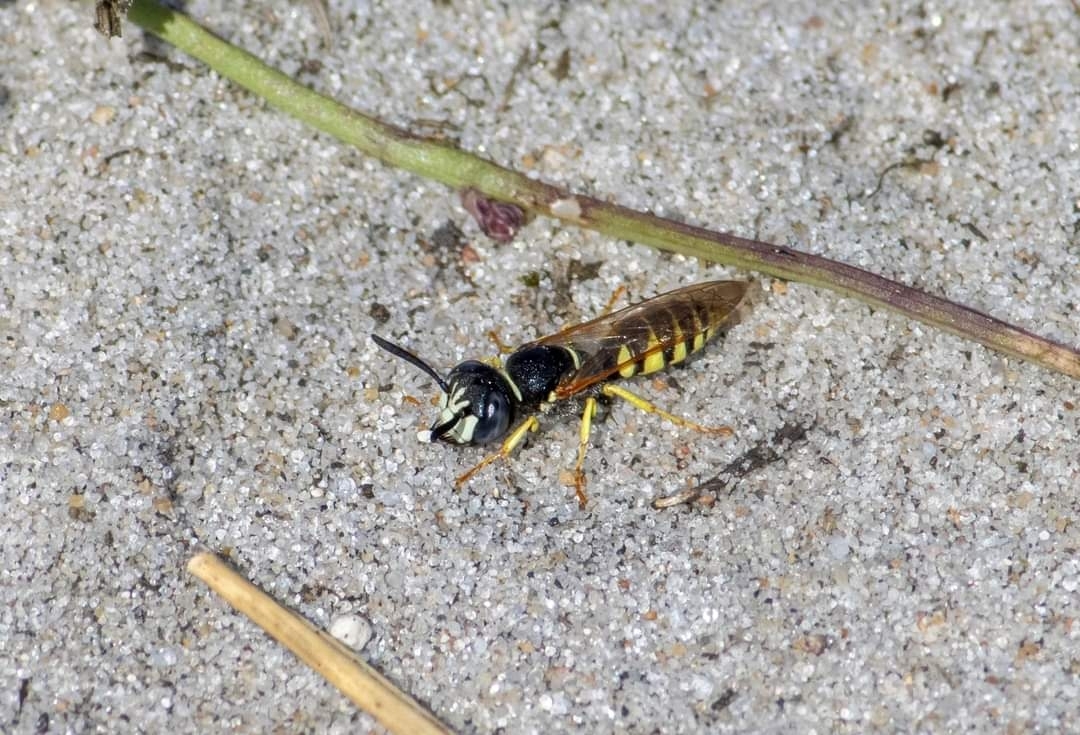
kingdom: Animalia
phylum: Arthropoda
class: Insecta
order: Hymenoptera
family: Crabronidae
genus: Philanthus
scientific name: Philanthus triangulum
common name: Bee wolf
